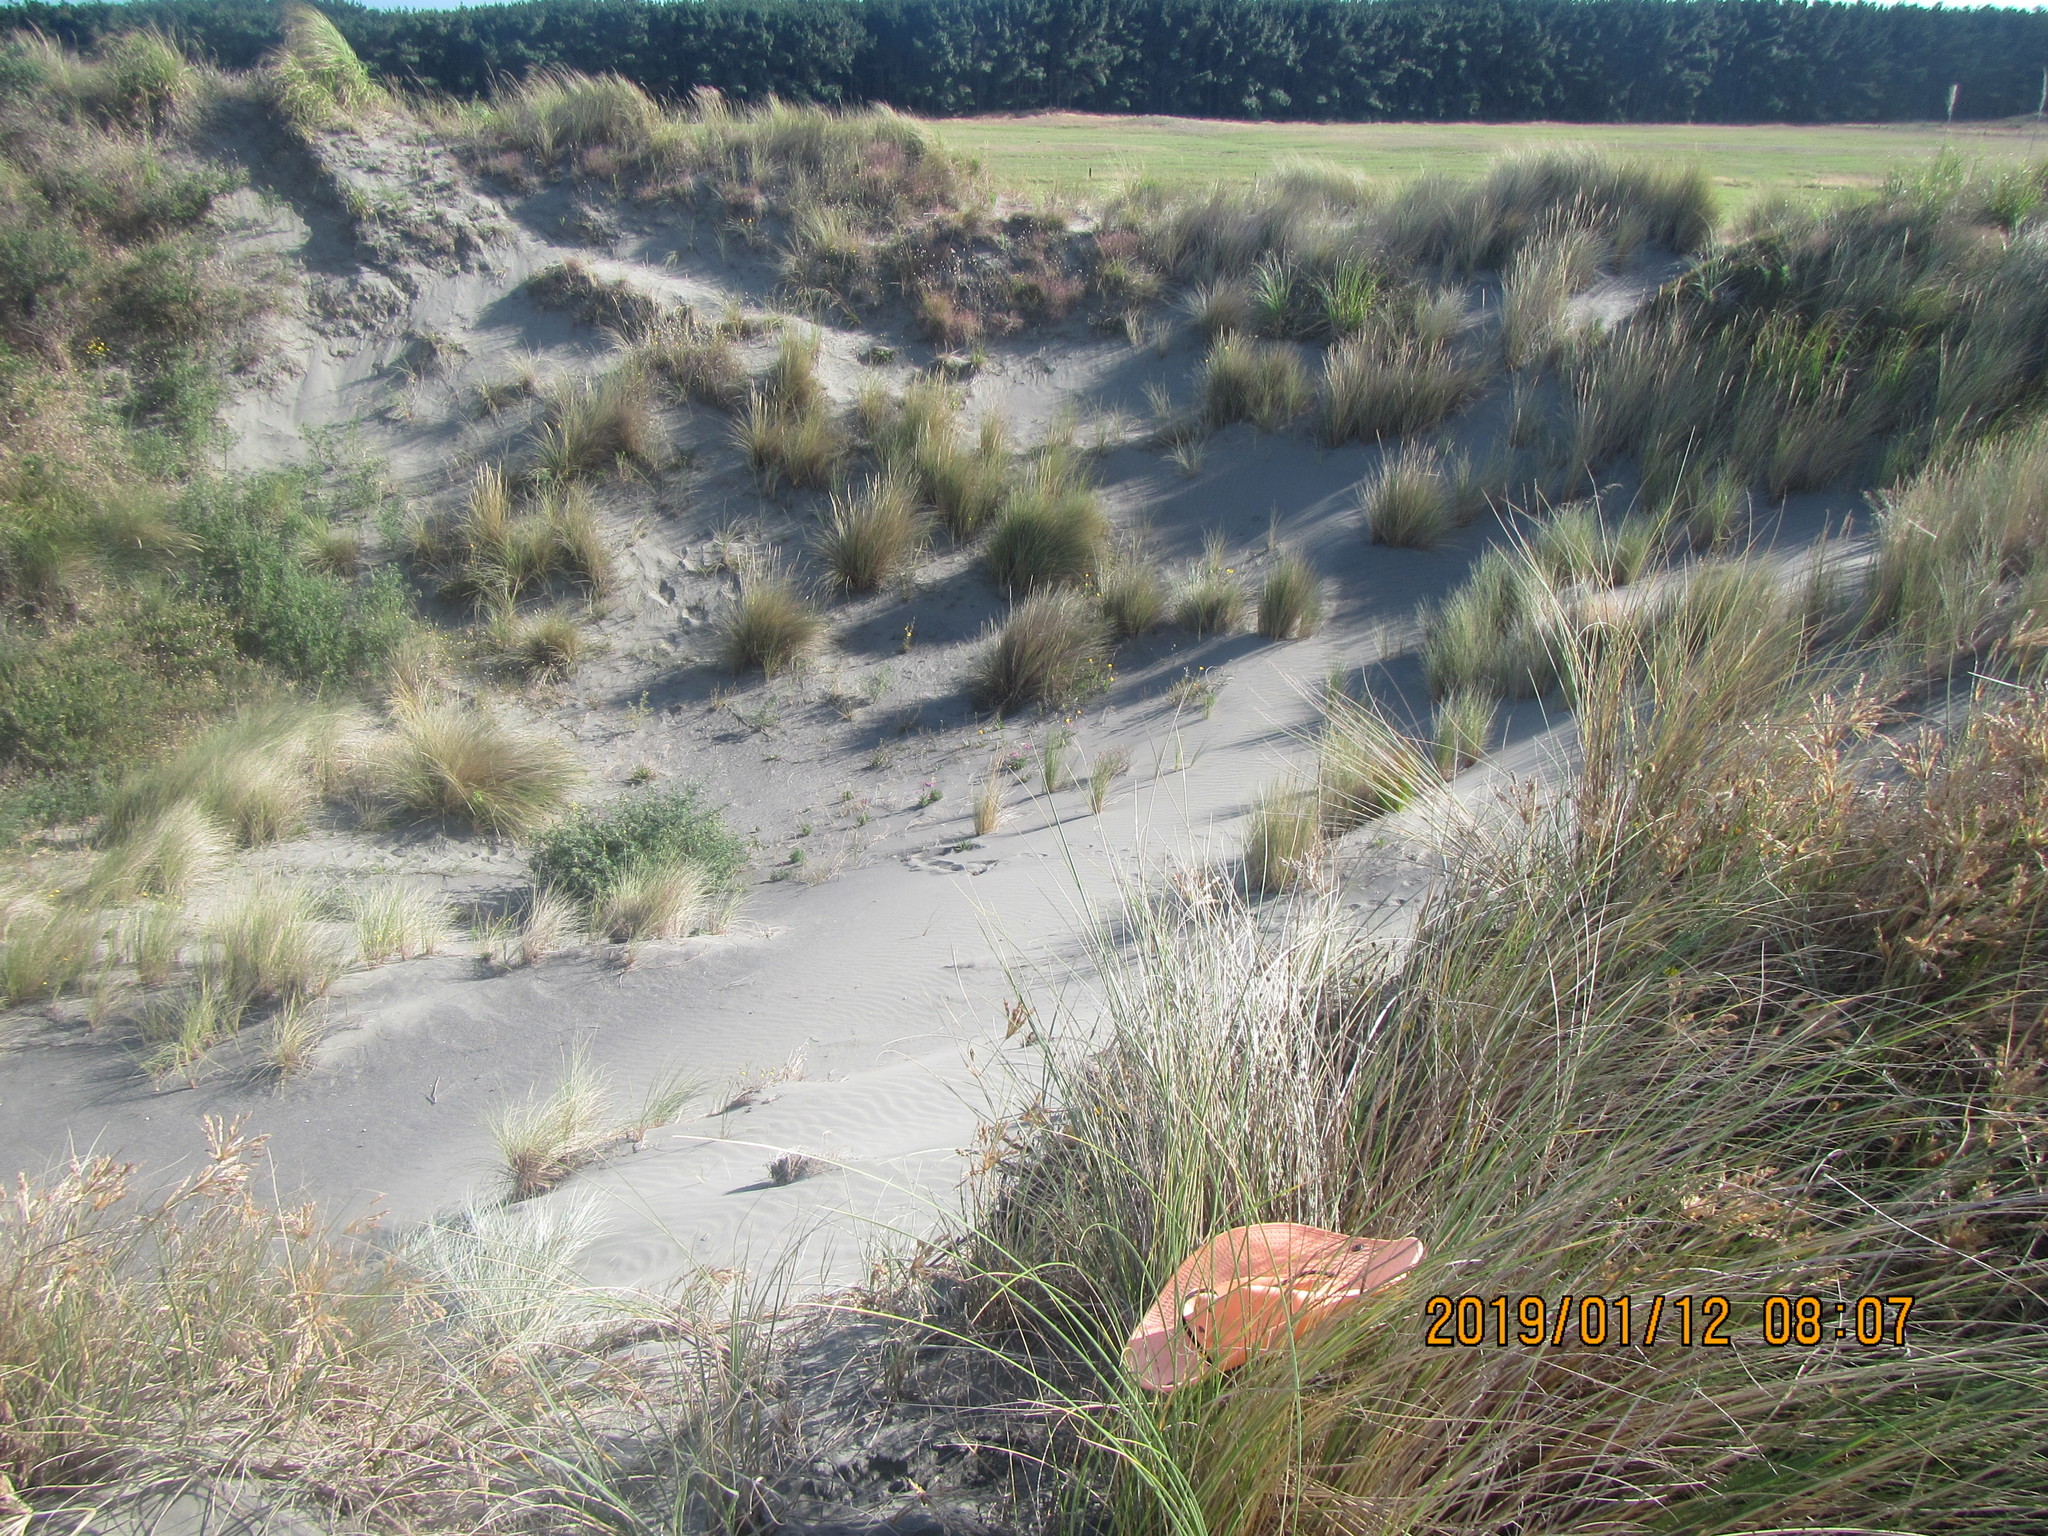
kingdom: Animalia
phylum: Arthropoda
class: Malacostraca
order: Isopoda
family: Armadillidiidae
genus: Armadillidium
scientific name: Armadillidium vulgare
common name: Common pill woodlouse
